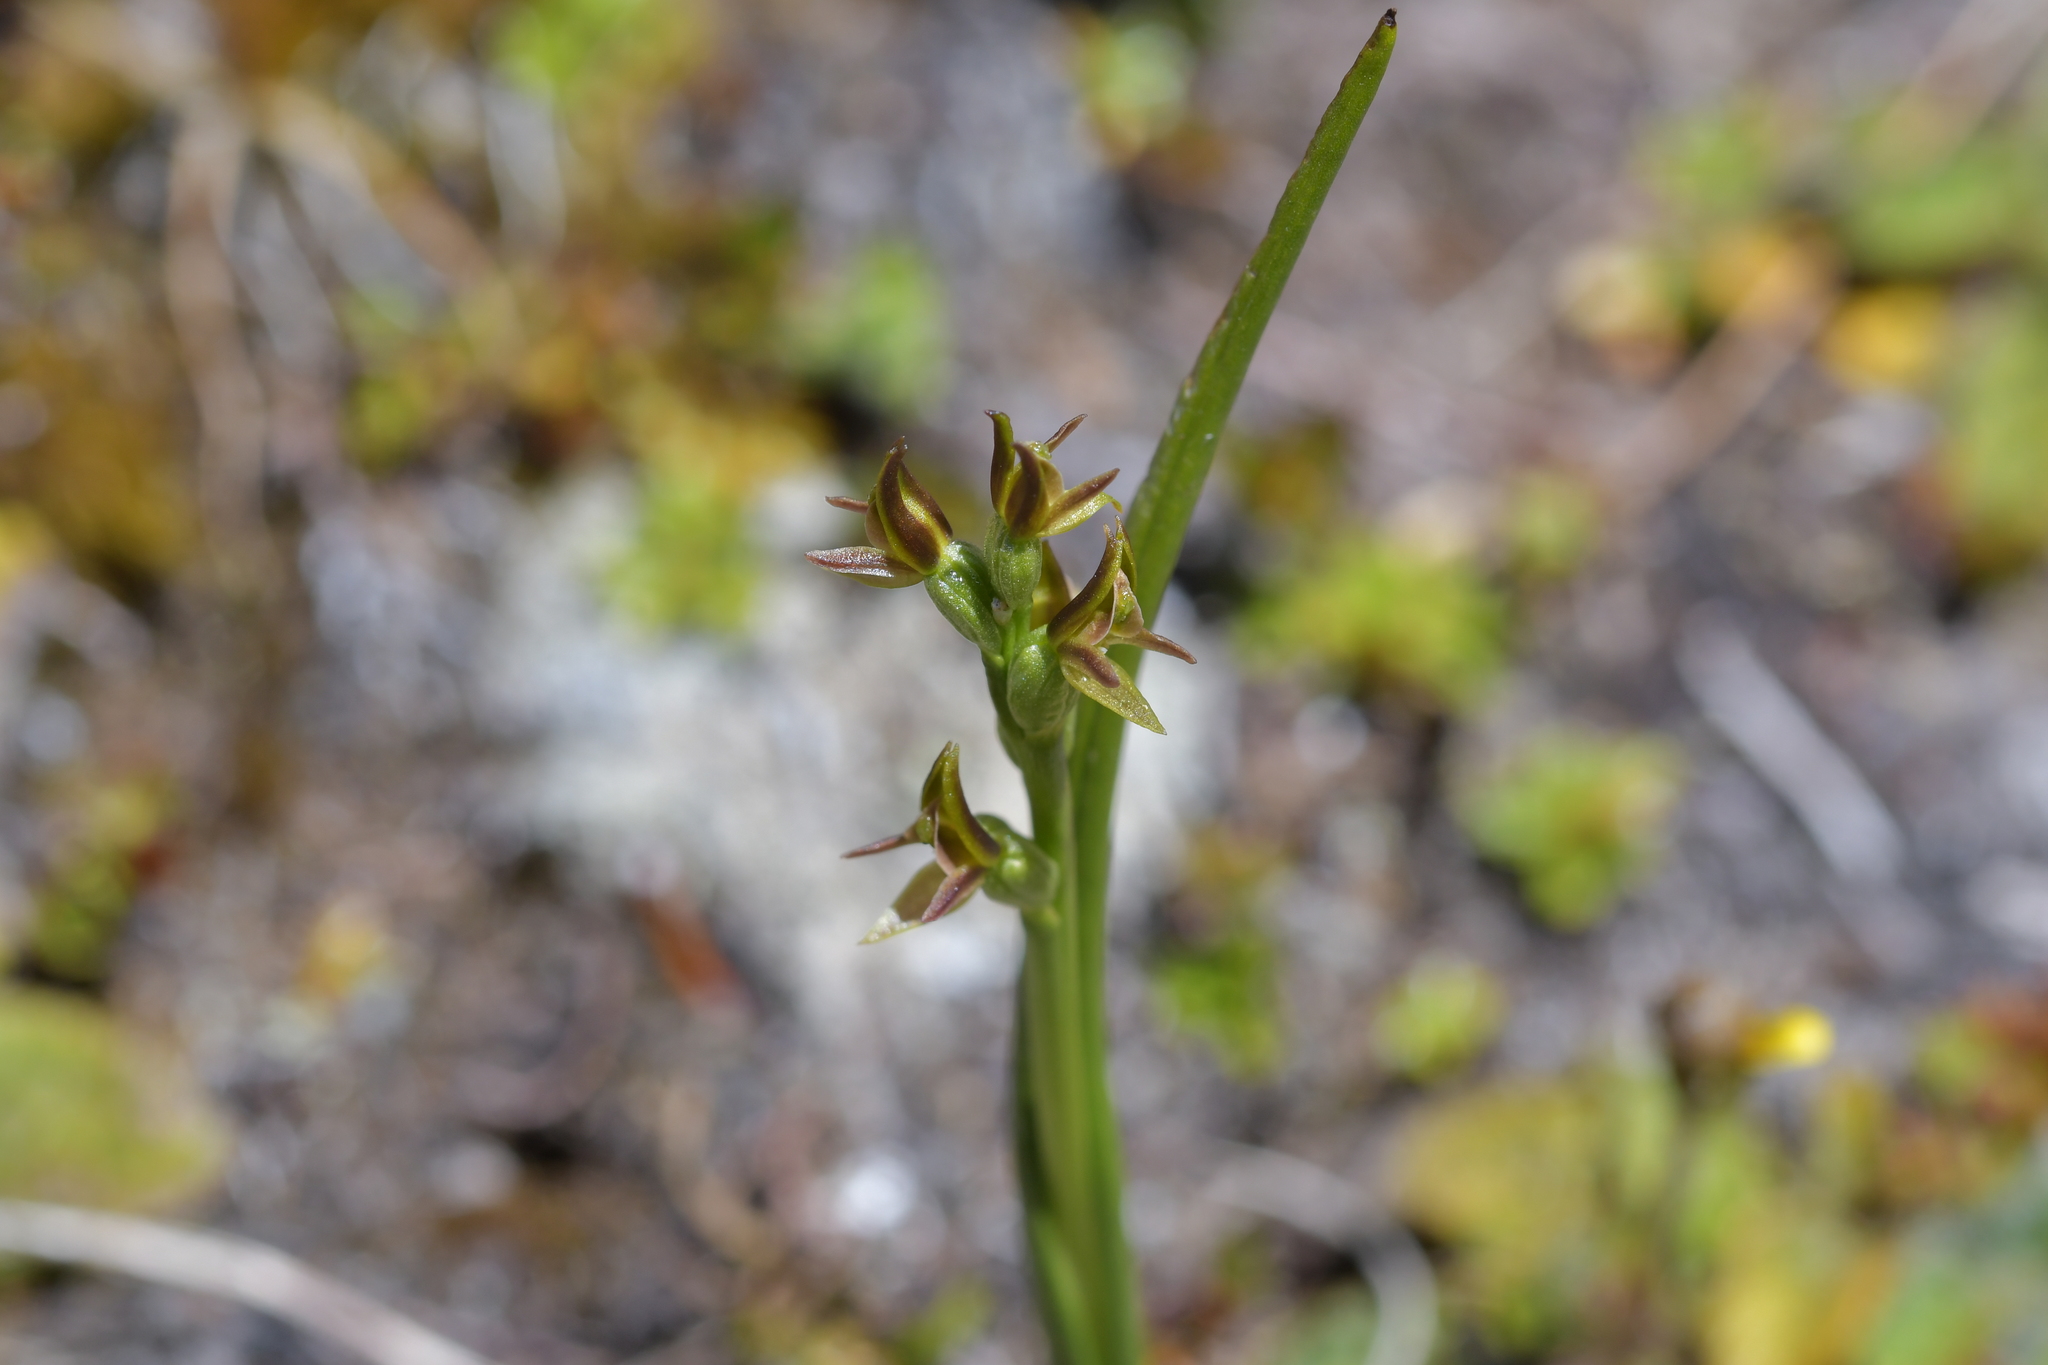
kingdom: Plantae
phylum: Tracheophyta
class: Liliopsida
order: Asparagales
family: Orchidaceae
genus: Prasophyllum
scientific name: Prasophyllum colensoi
